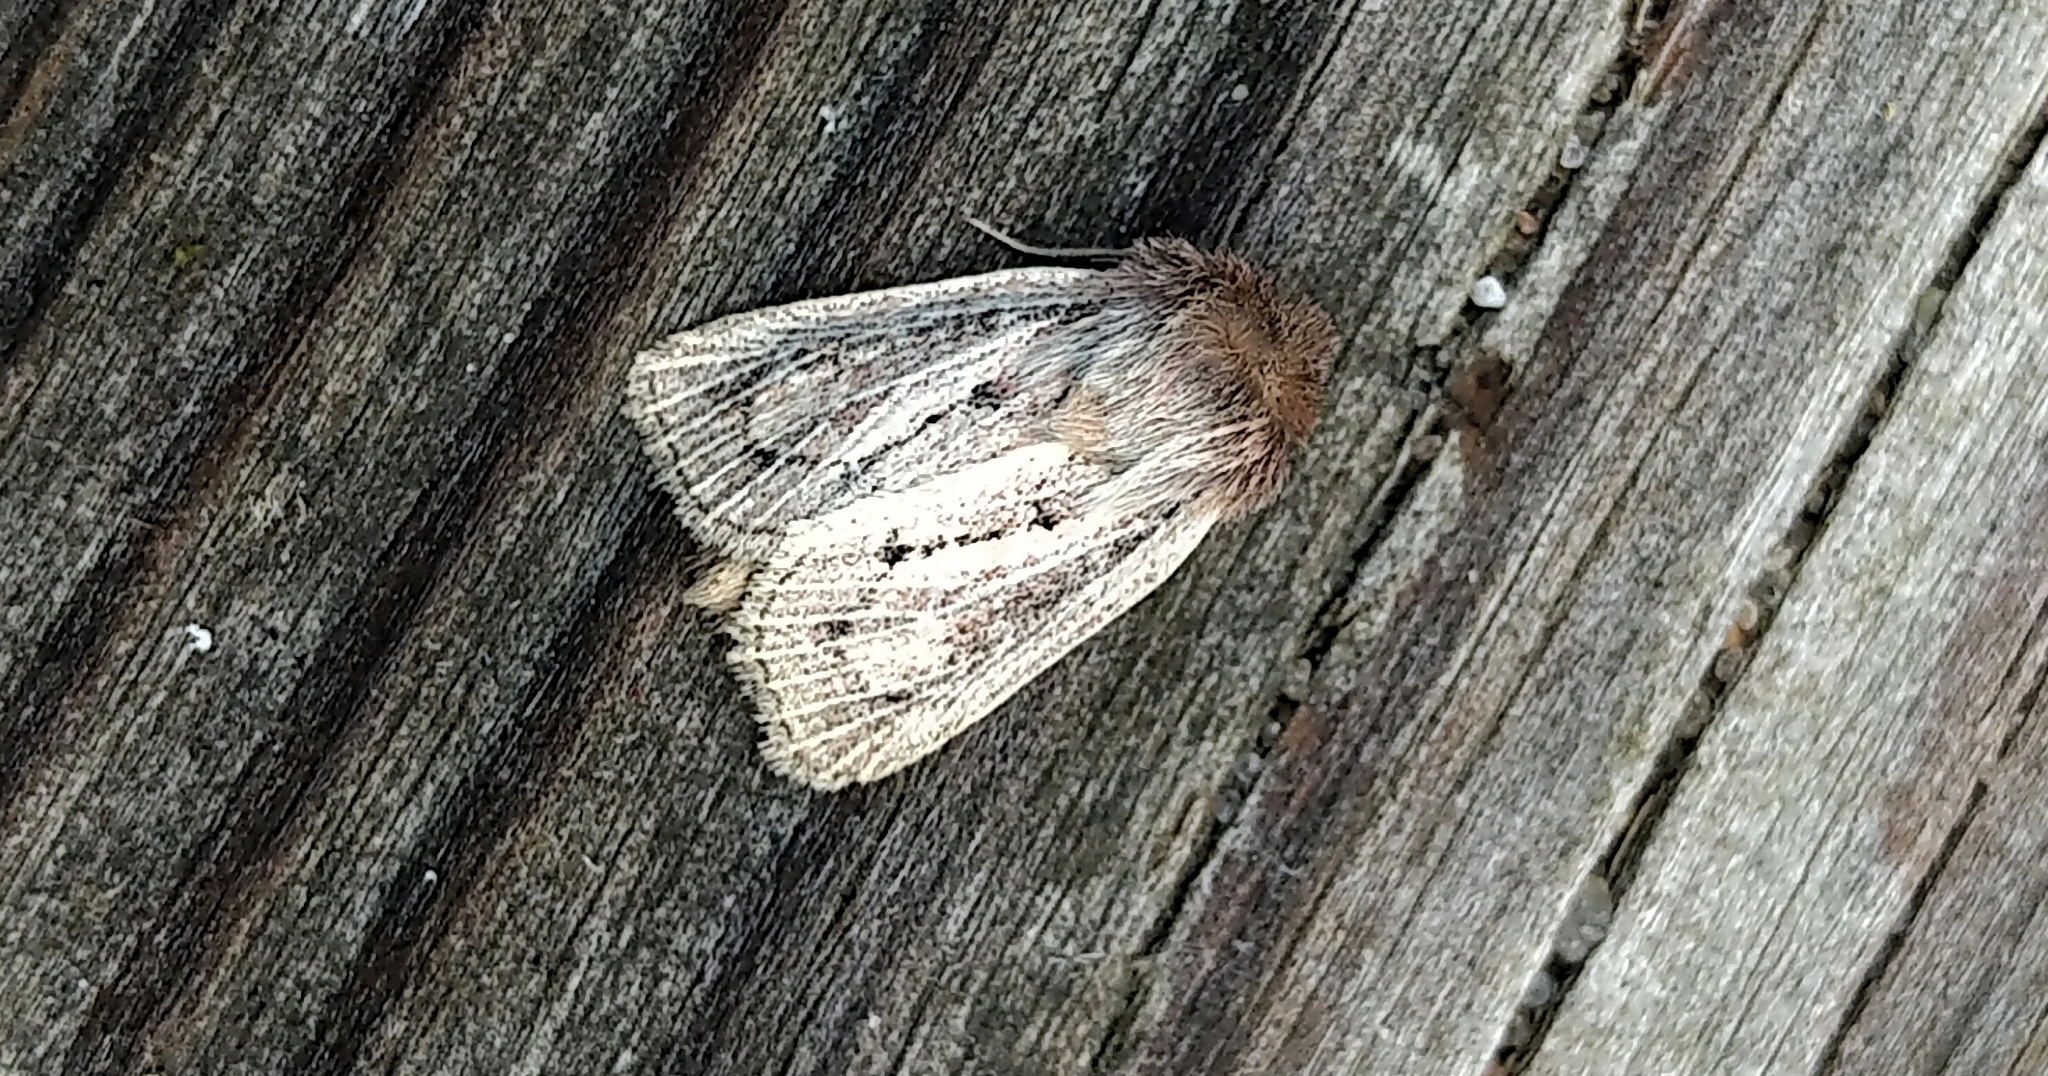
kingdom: Animalia
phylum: Arthropoda
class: Insecta
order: Lepidoptera
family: Noctuidae
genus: Hypocoena
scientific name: Hypocoena inquinata
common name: Tufted sedge moth
